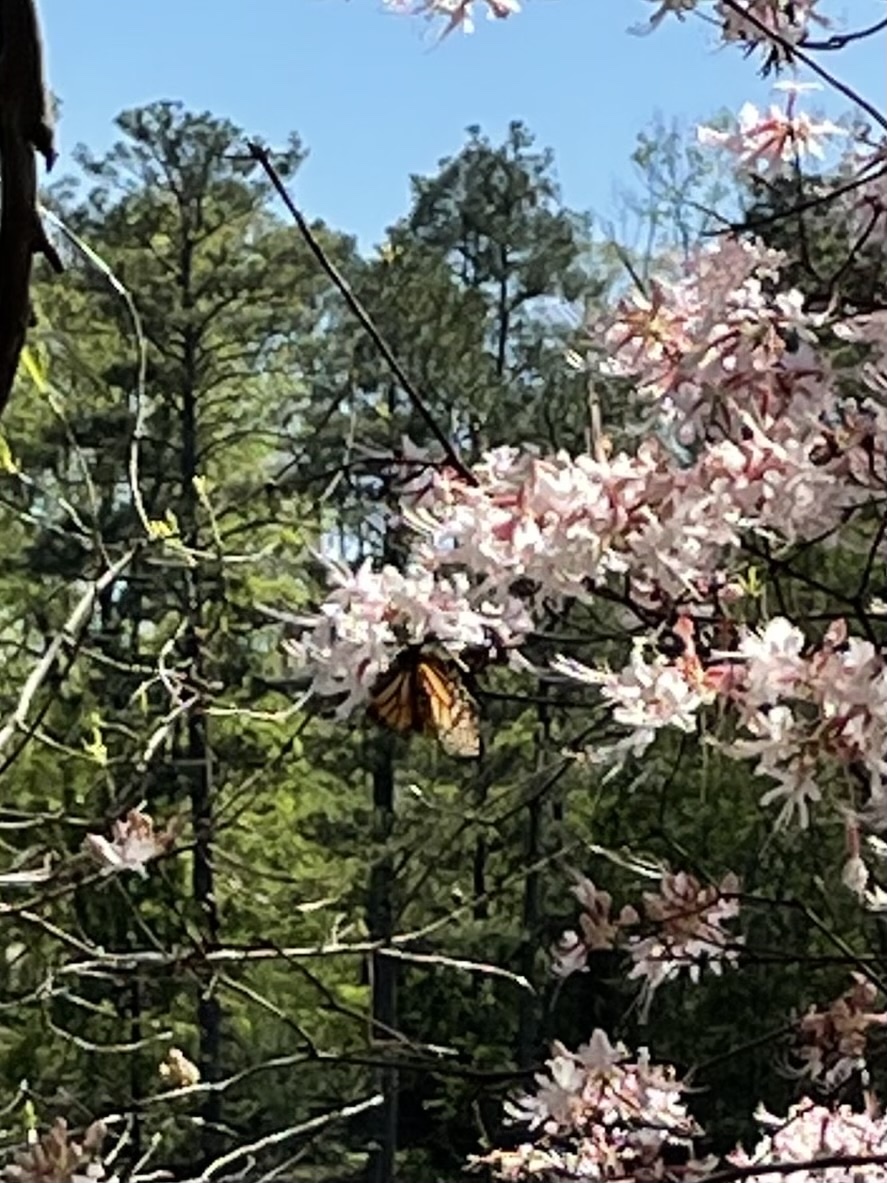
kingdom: Animalia
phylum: Arthropoda
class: Insecta
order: Lepidoptera
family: Nymphalidae
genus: Danaus
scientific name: Danaus plexippus
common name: Monarch
